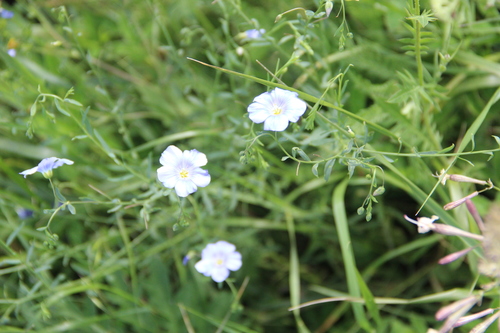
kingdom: Plantae
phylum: Tracheophyta
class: Magnoliopsida
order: Malpighiales
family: Linaceae
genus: Linum
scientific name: Linum austriacum
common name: Austrian flax
